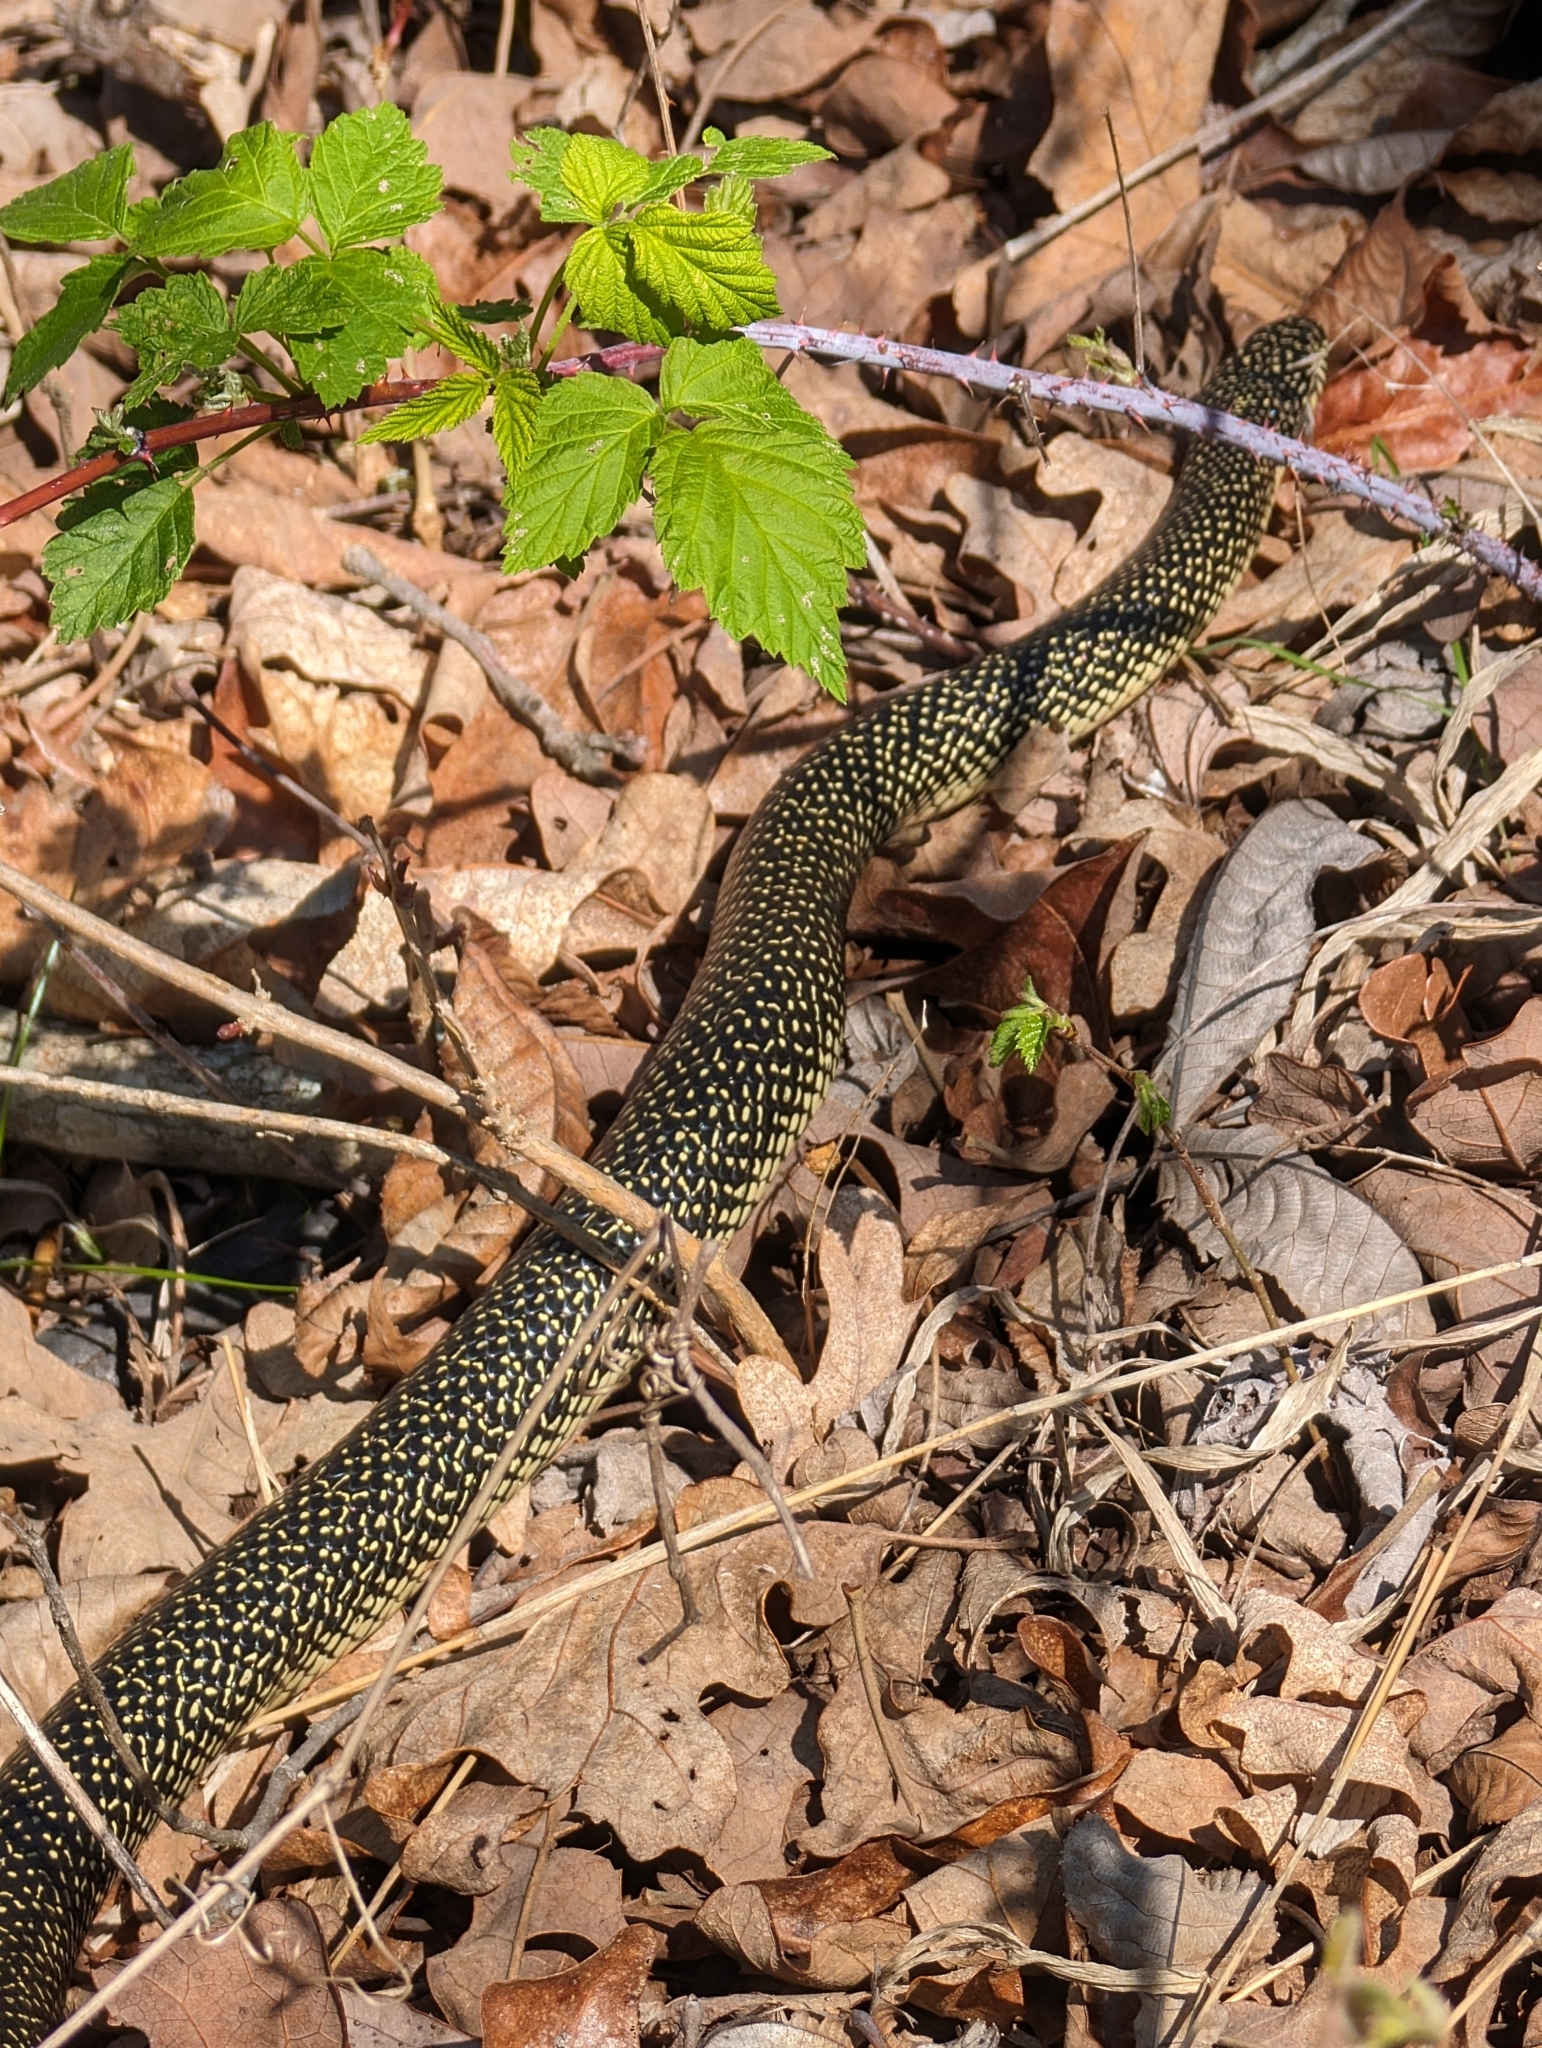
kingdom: Animalia
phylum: Chordata
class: Squamata
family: Colubridae
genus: Lampropeltis
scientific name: Lampropeltis holbrooki
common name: Speckled kingsnake
